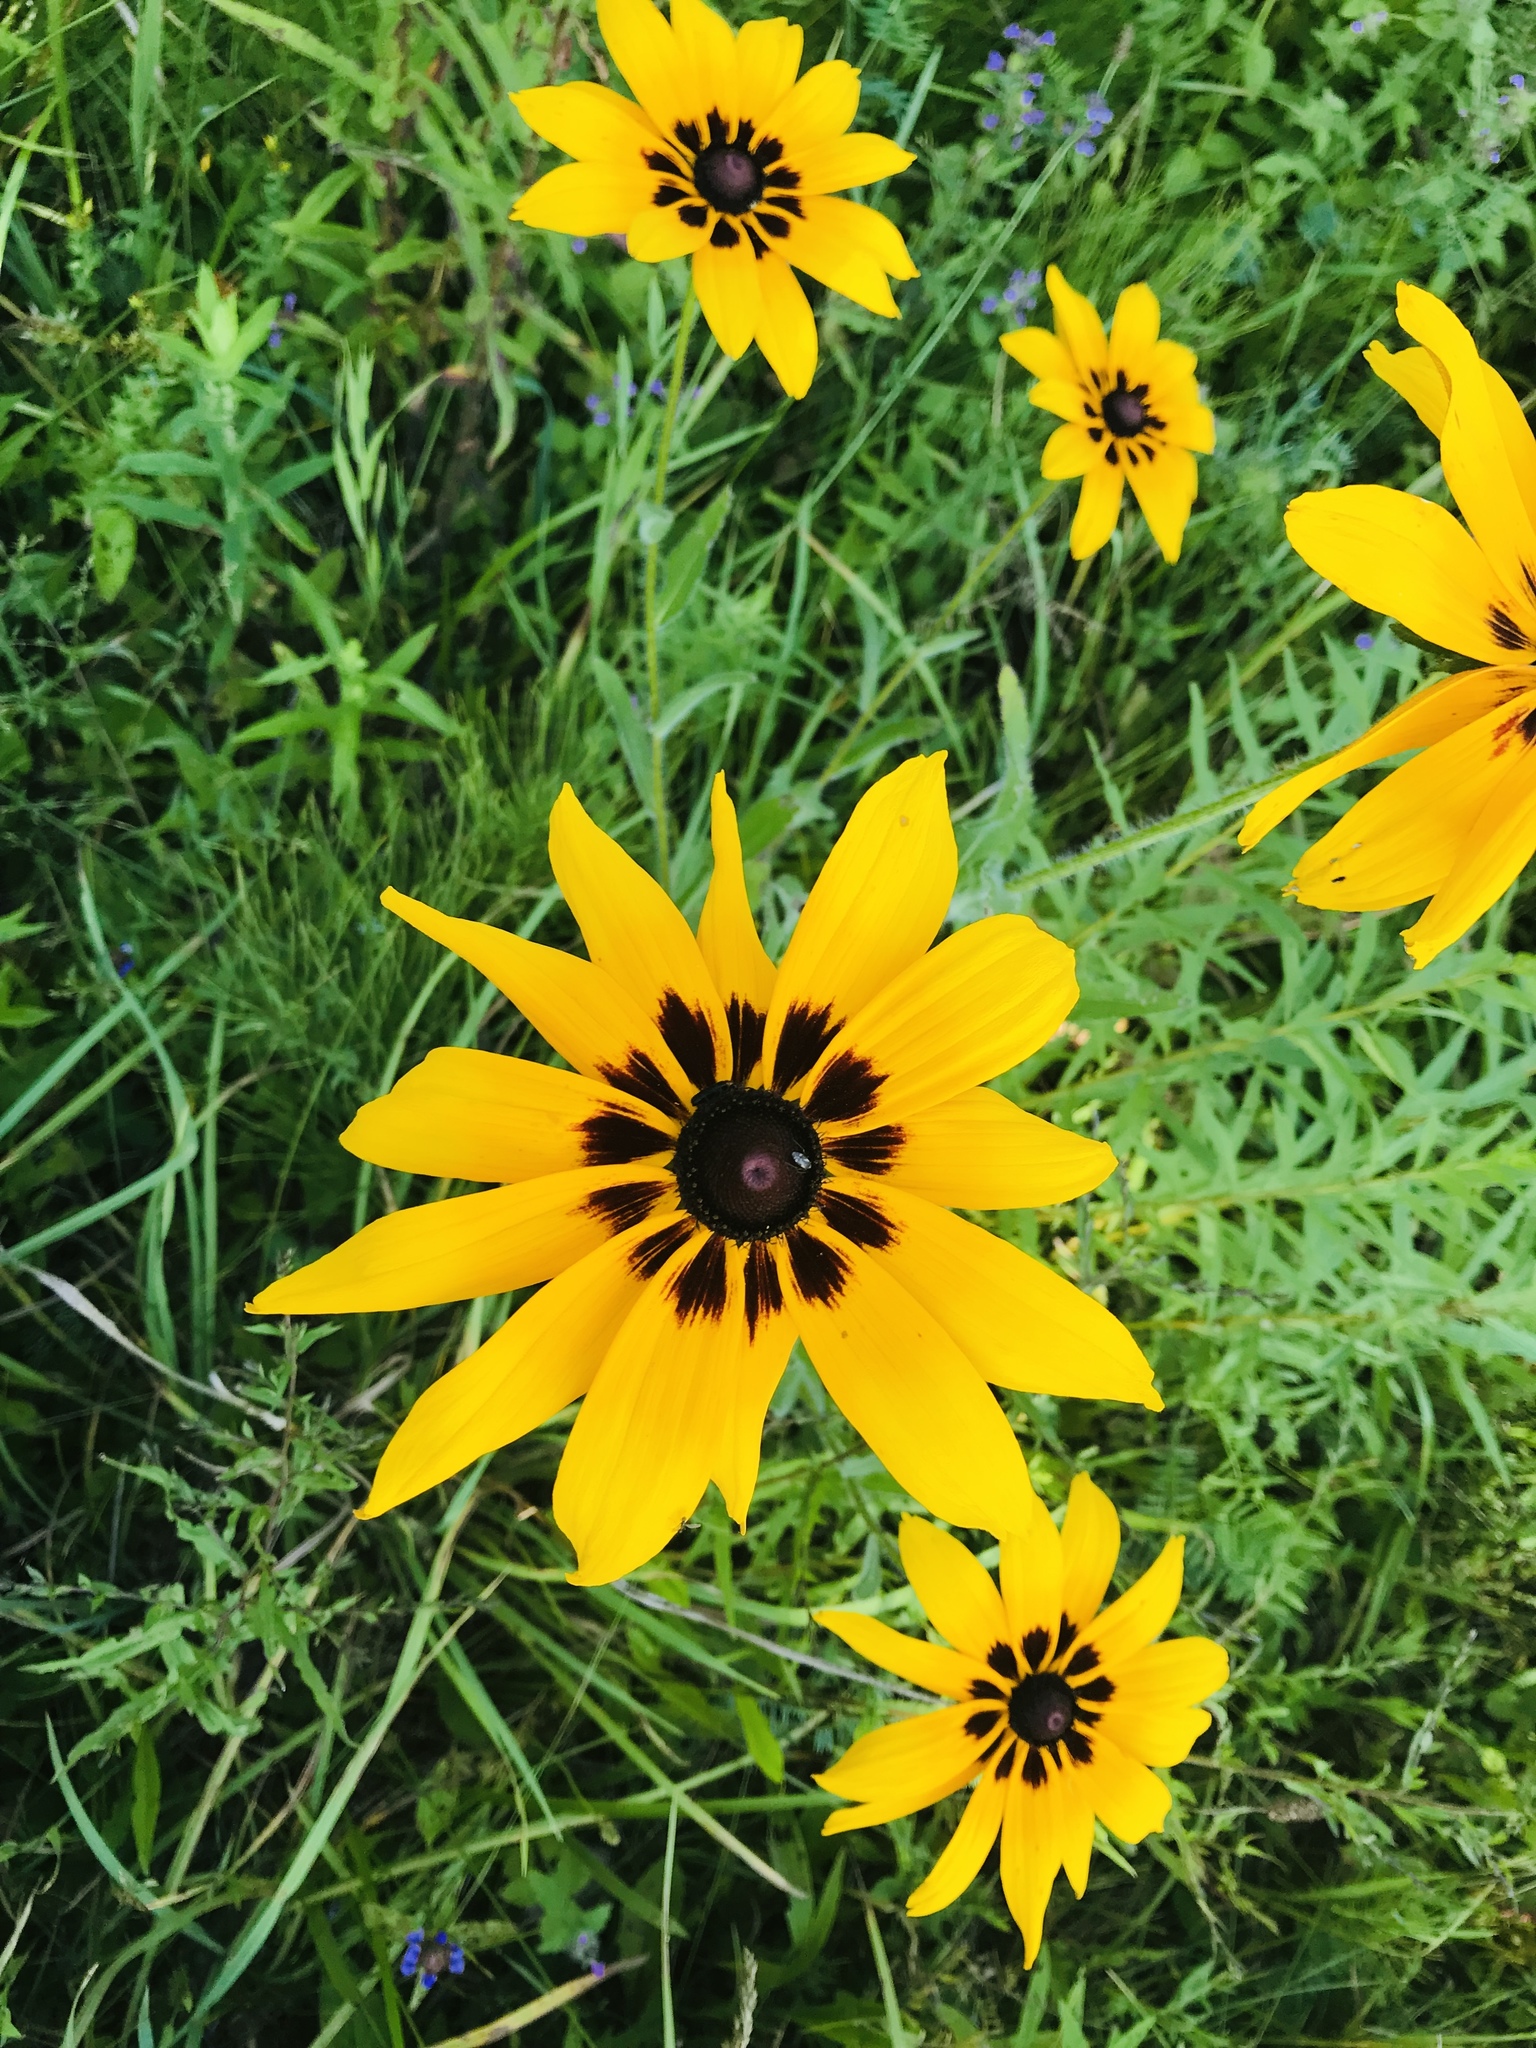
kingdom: Plantae
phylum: Tracheophyta
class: Magnoliopsida
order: Asterales
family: Asteraceae
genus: Rudbeckia
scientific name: Rudbeckia hirta
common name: Black-eyed-susan
